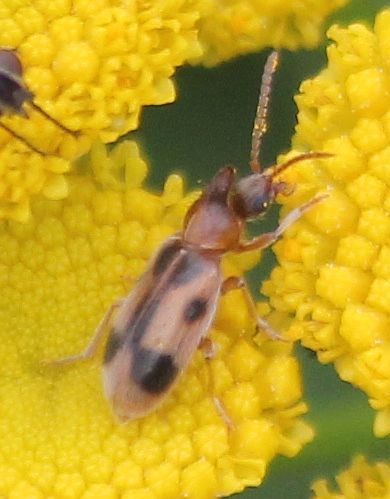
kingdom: Animalia
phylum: Arthropoda
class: Insecta
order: Coleoptera
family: Anthicidae
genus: Notoxus
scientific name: Notoxus monoceros
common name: Monoceros beetle
